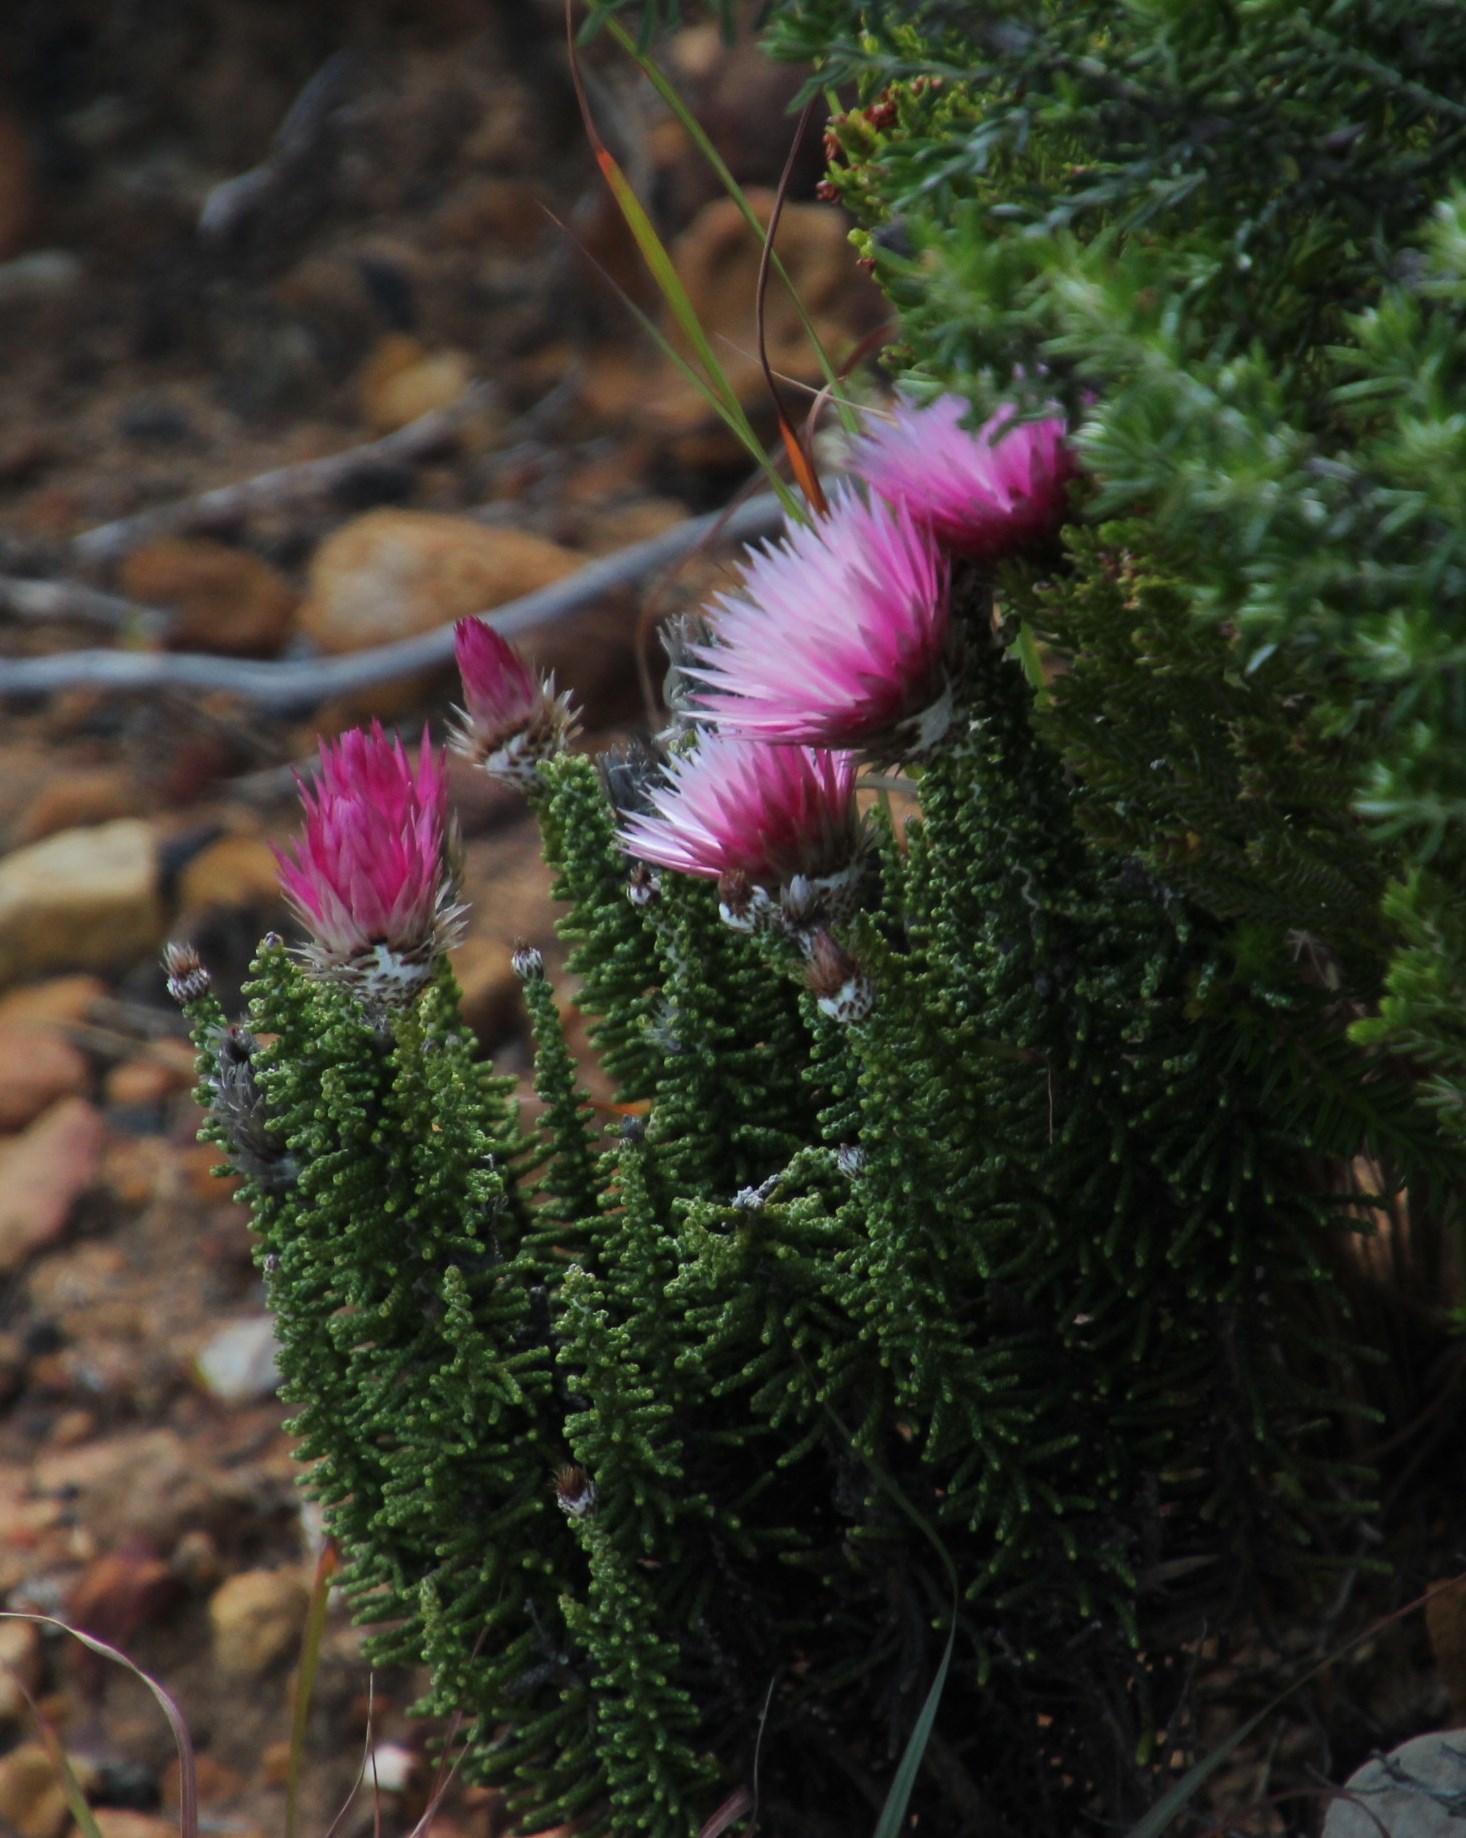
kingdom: Plantae
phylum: Tracheophyta
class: Magnoliopsida
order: Asterales
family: Asteraceae
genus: Phaenocoma
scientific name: Phaenocoma prolifera
